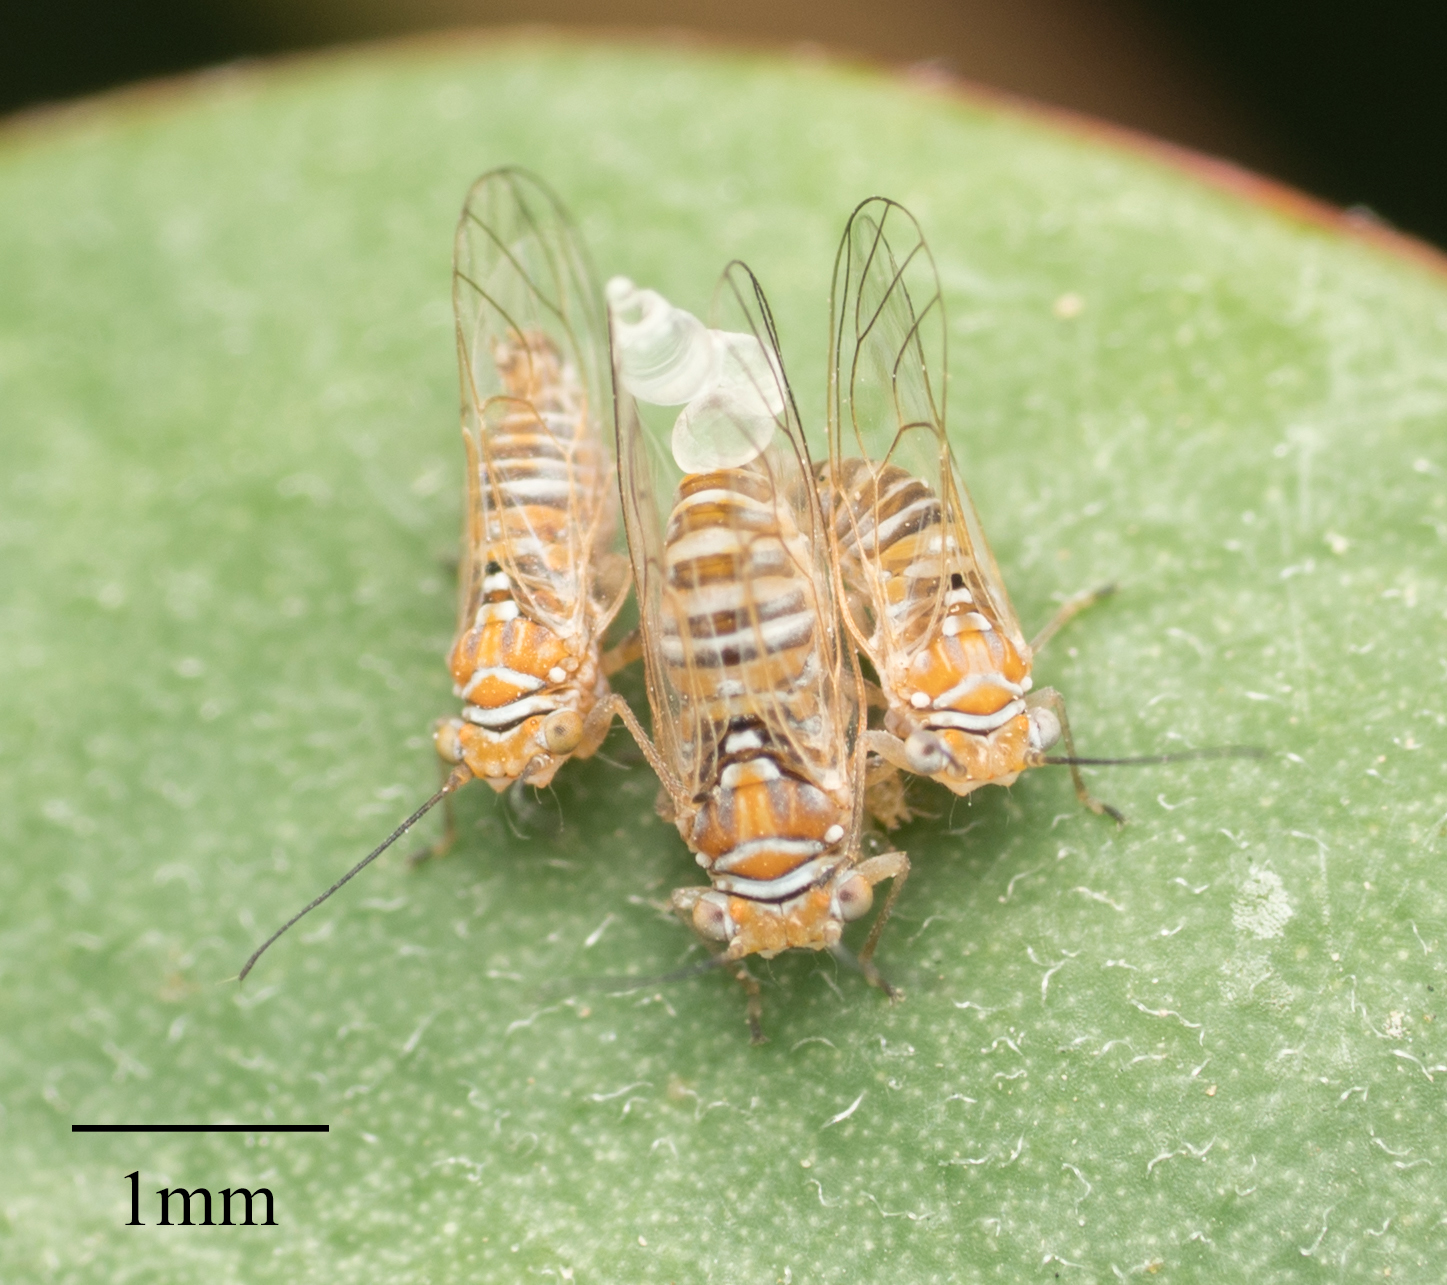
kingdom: Animalia
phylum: Arthropoda
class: Insecta
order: Hemiptera
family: Psyllidae
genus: Freysuila
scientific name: Freysuila dugesii
